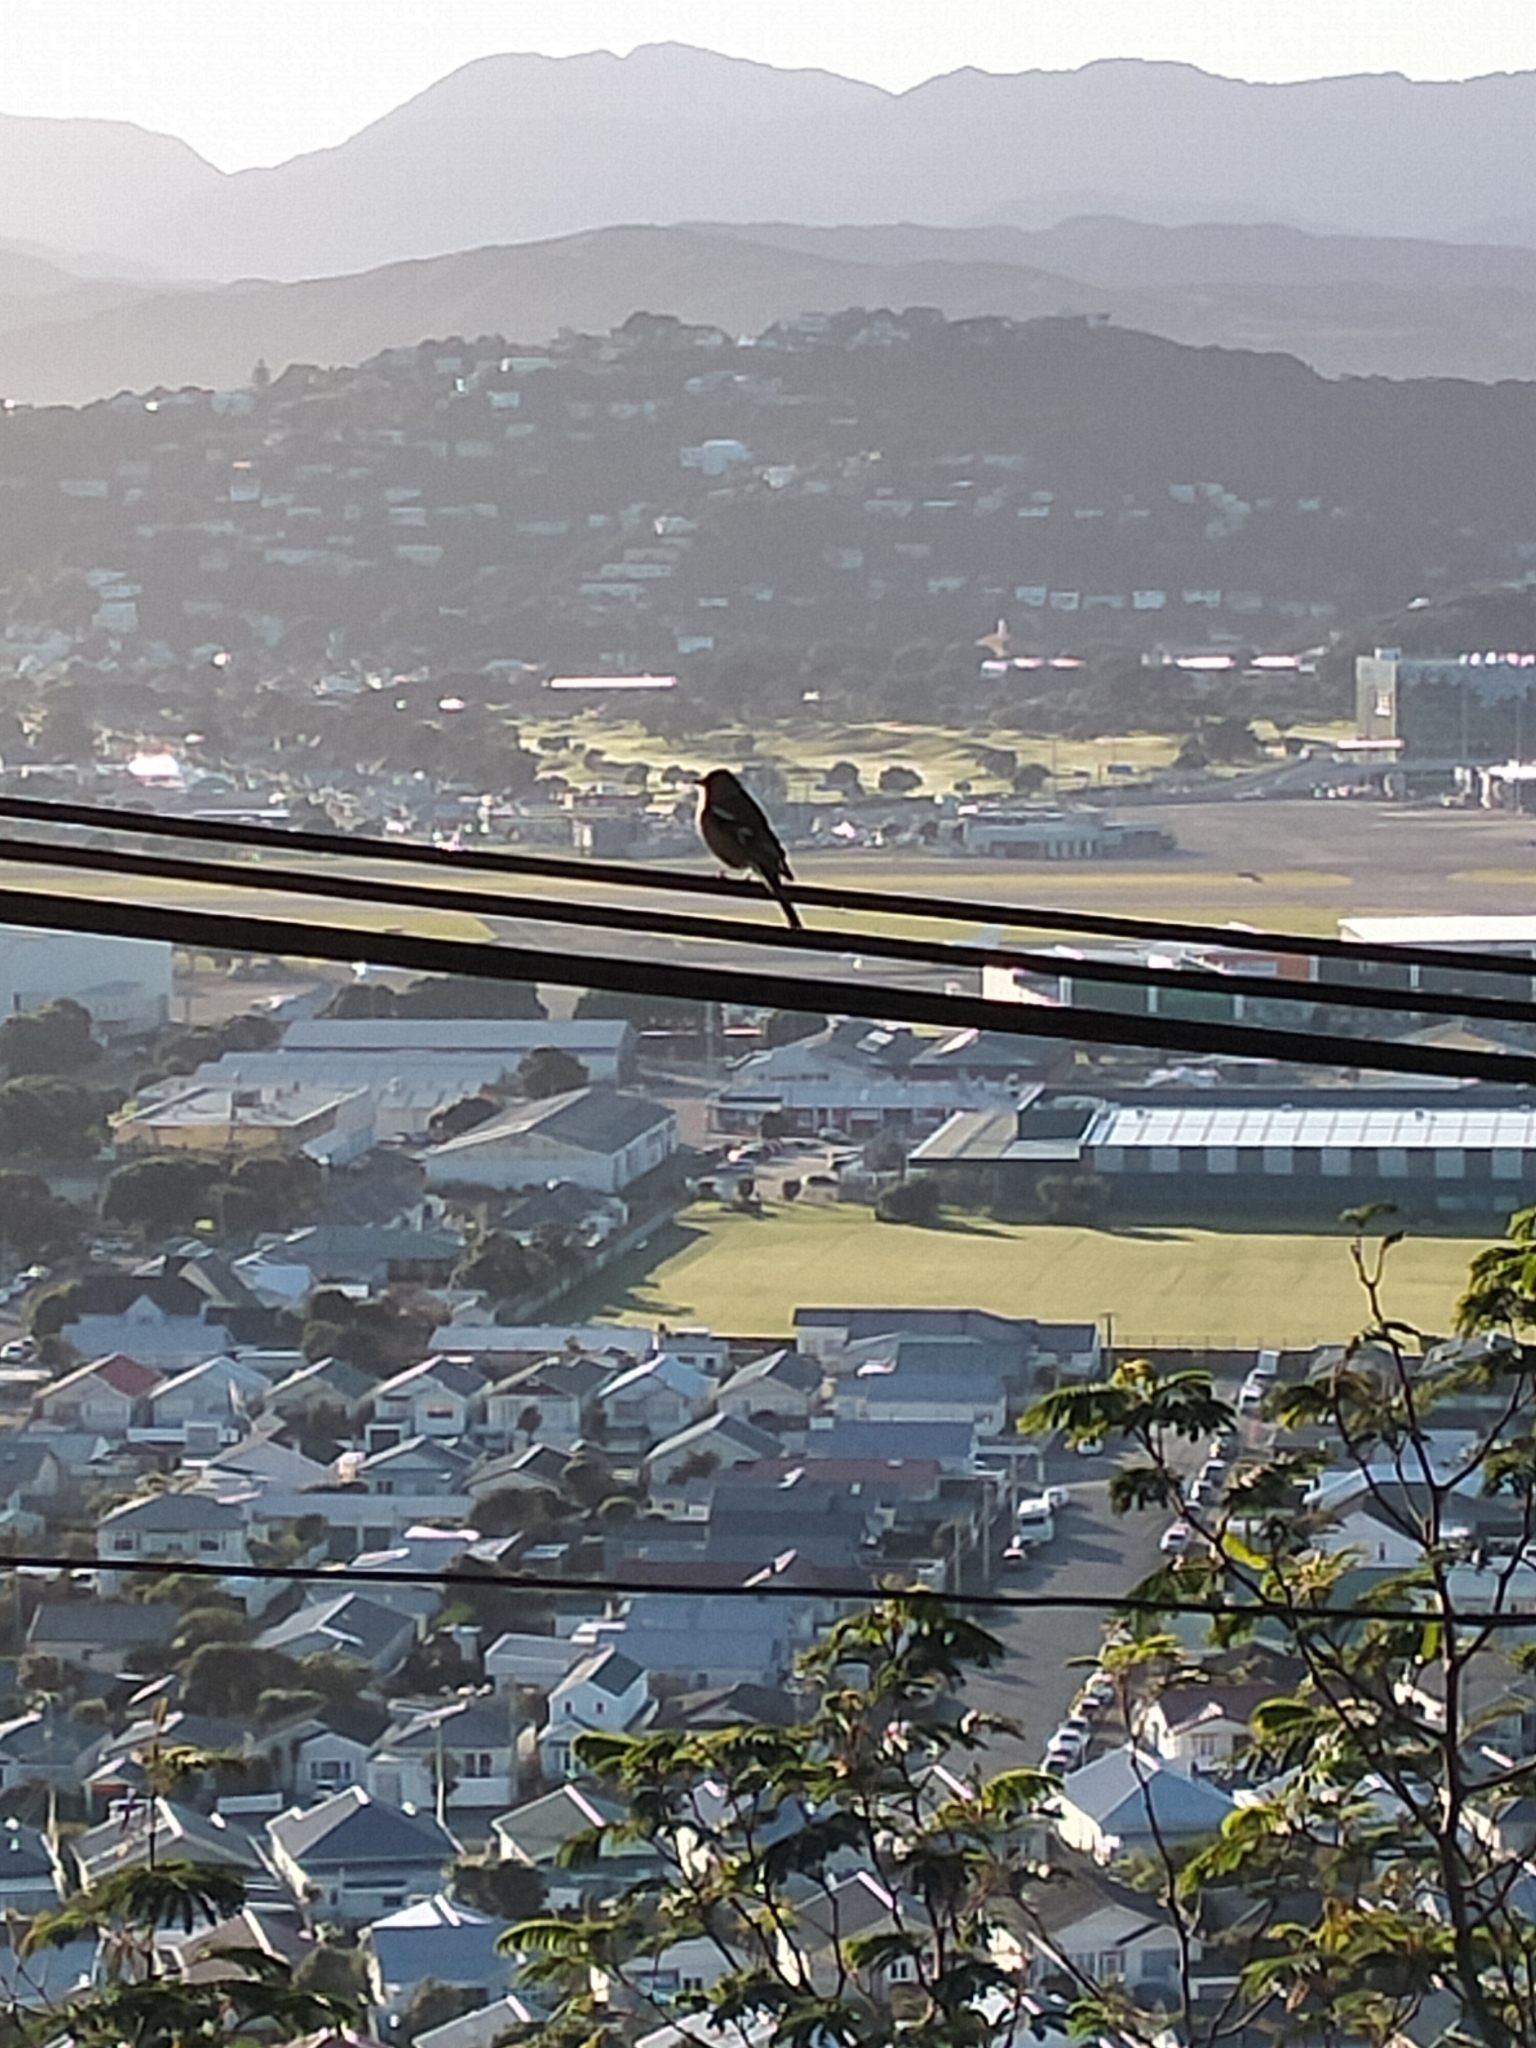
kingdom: Animalia
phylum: Chordata
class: Aves
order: Passeriformes
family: Fringillidae
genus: Fringilla
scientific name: Fringilla coelebs
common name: Common chaffinch
